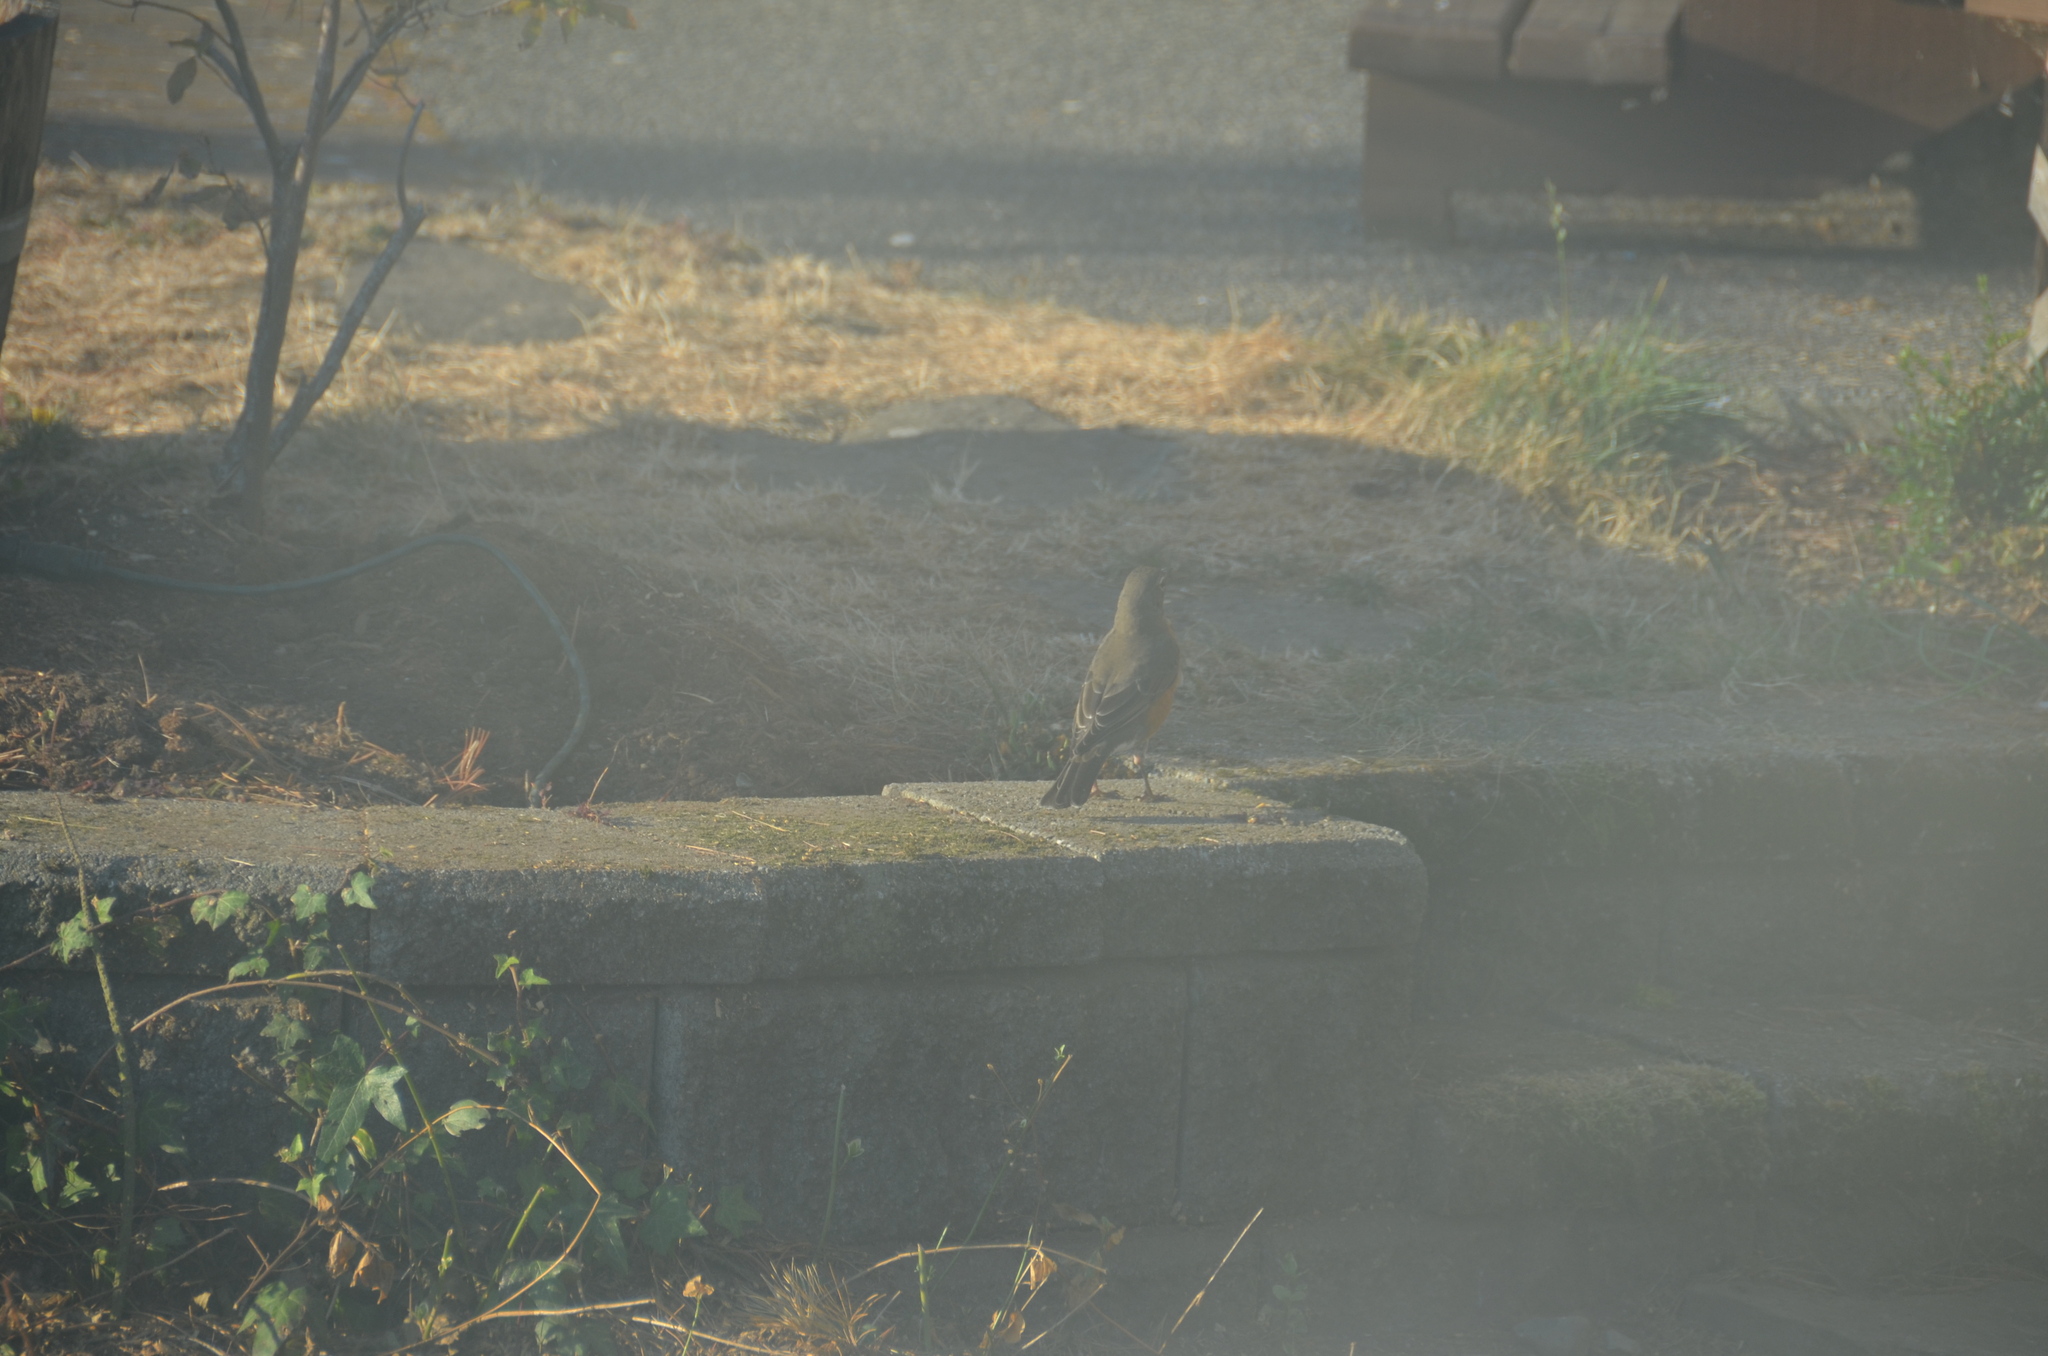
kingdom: Animalia
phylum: Chordata
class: Aves
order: Passeriformes
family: Turdidae
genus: Turdus
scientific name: Turdus migratorius
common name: American robin
